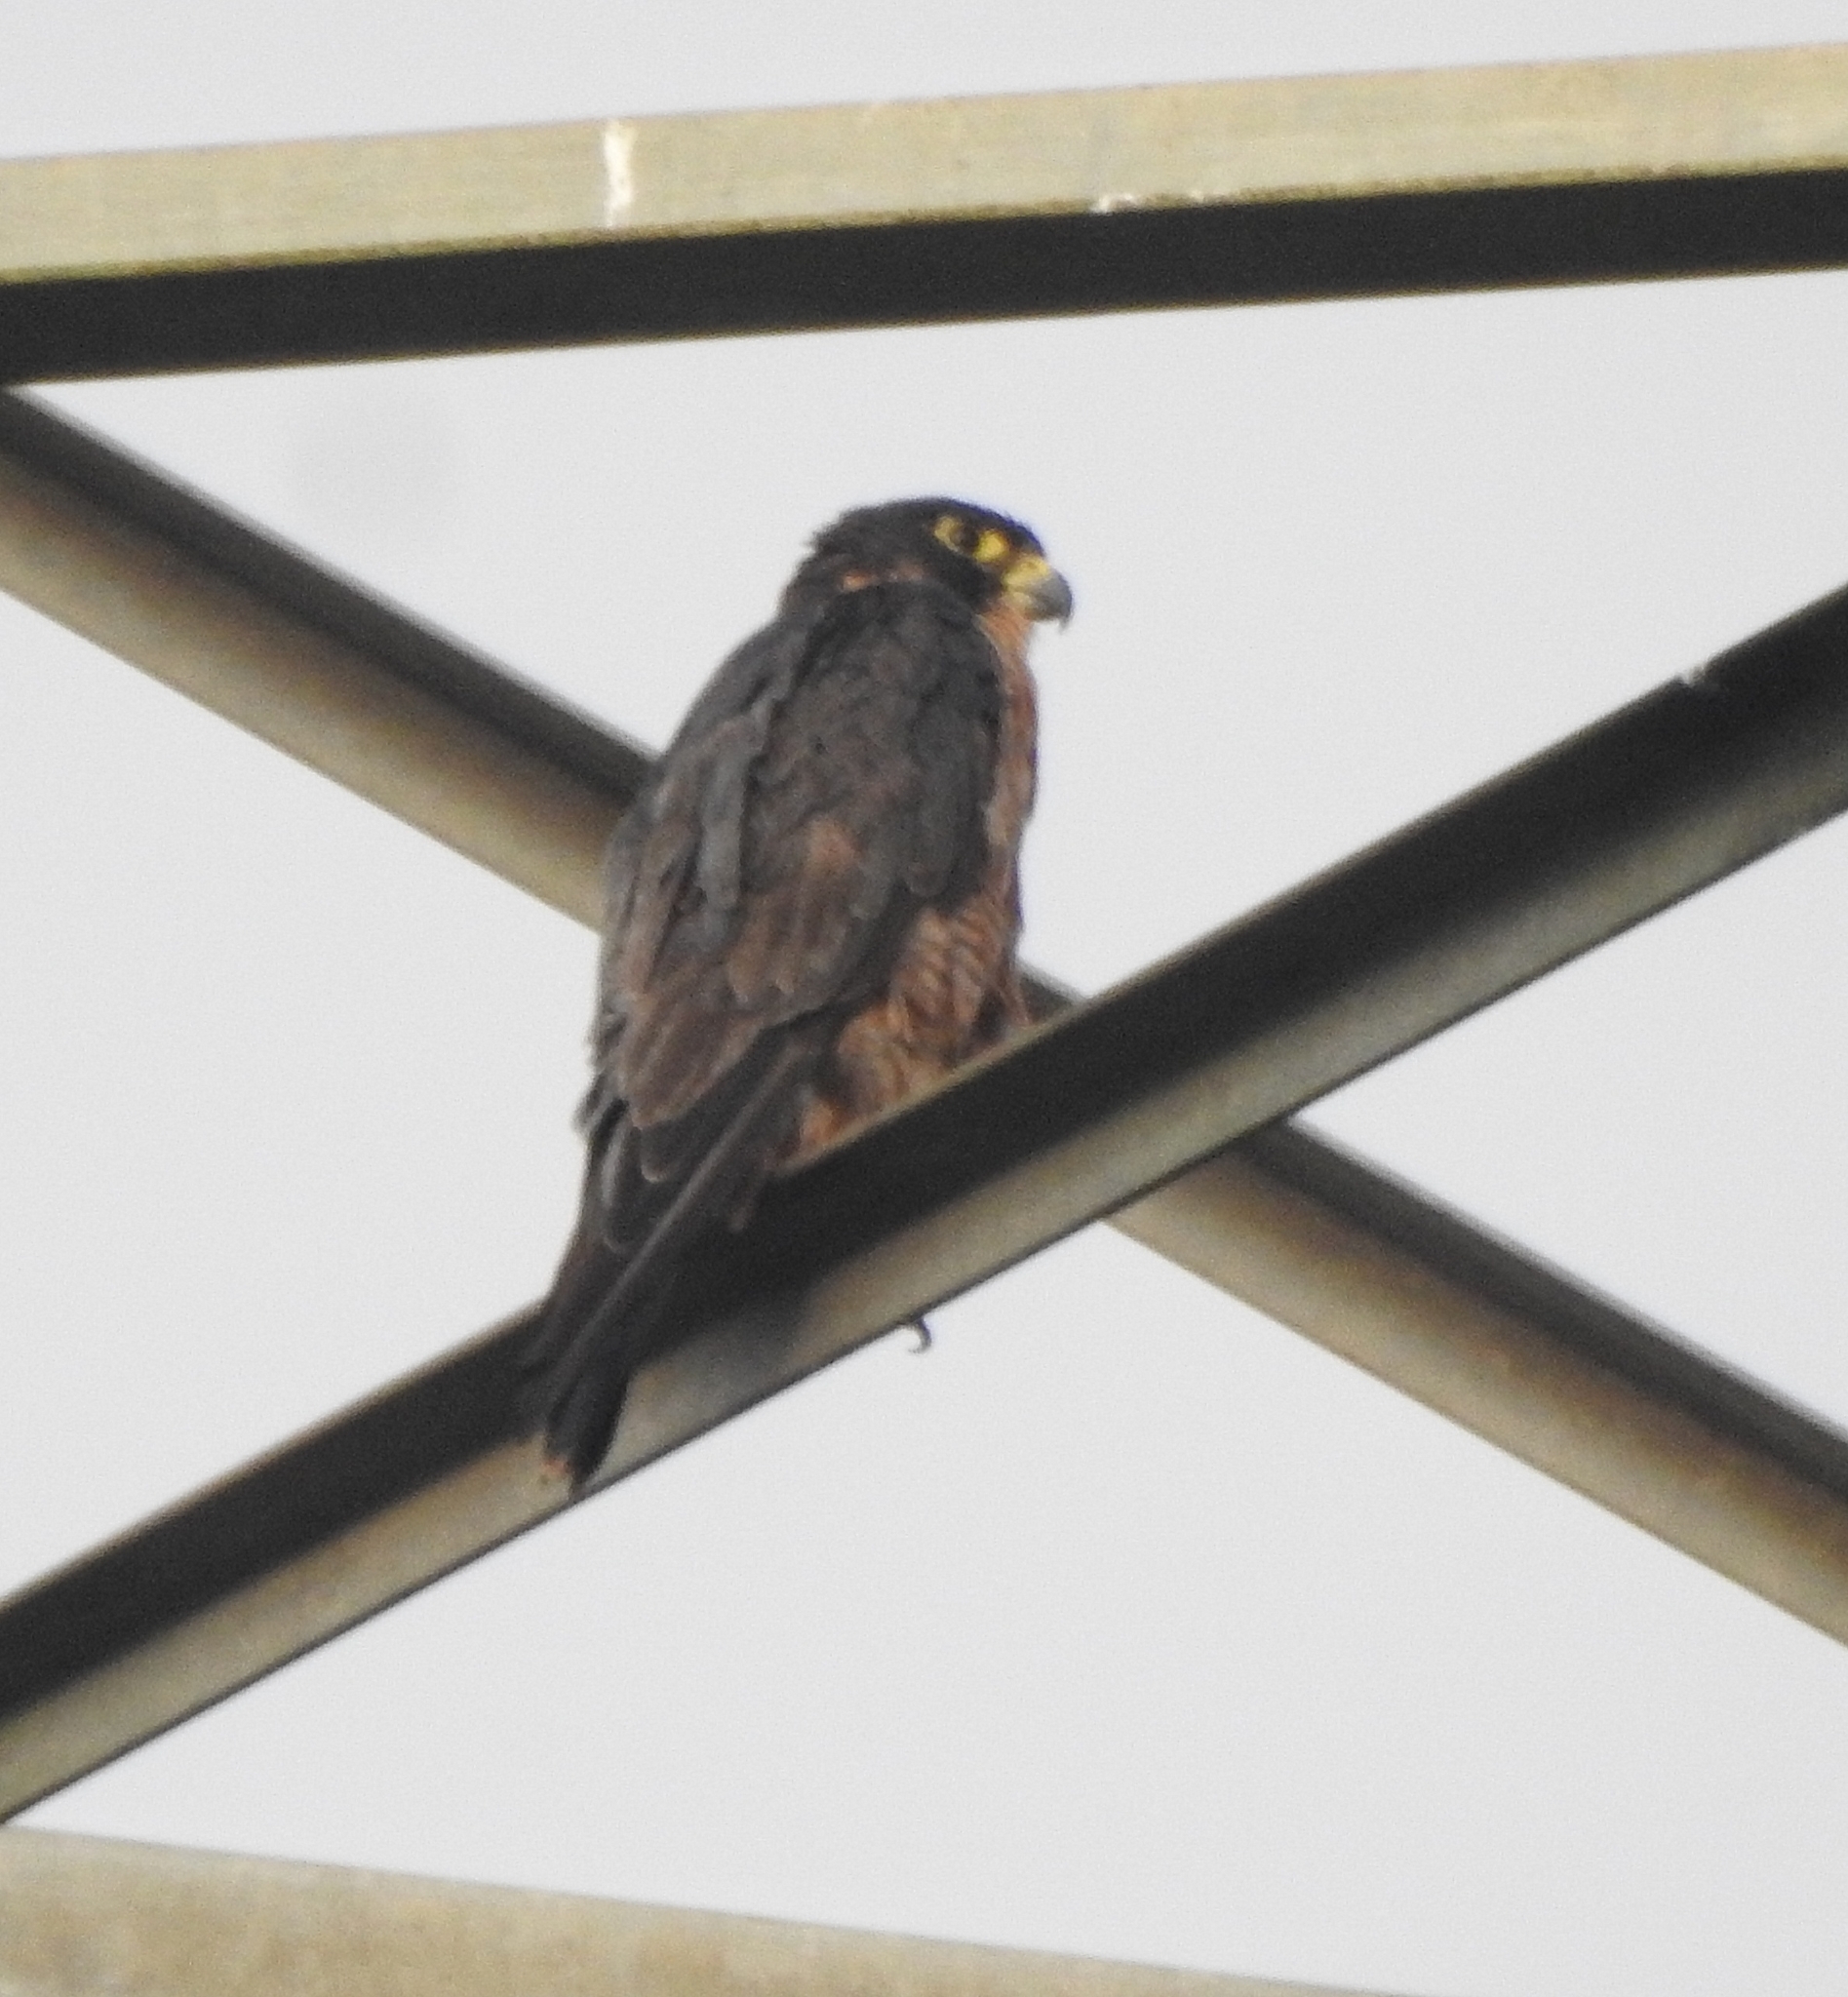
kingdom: Animalia
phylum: Chordata
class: Aves
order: Falconiformes
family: Falconidae
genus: Falco
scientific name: Falco peregrinus
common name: Peregrine falcon
